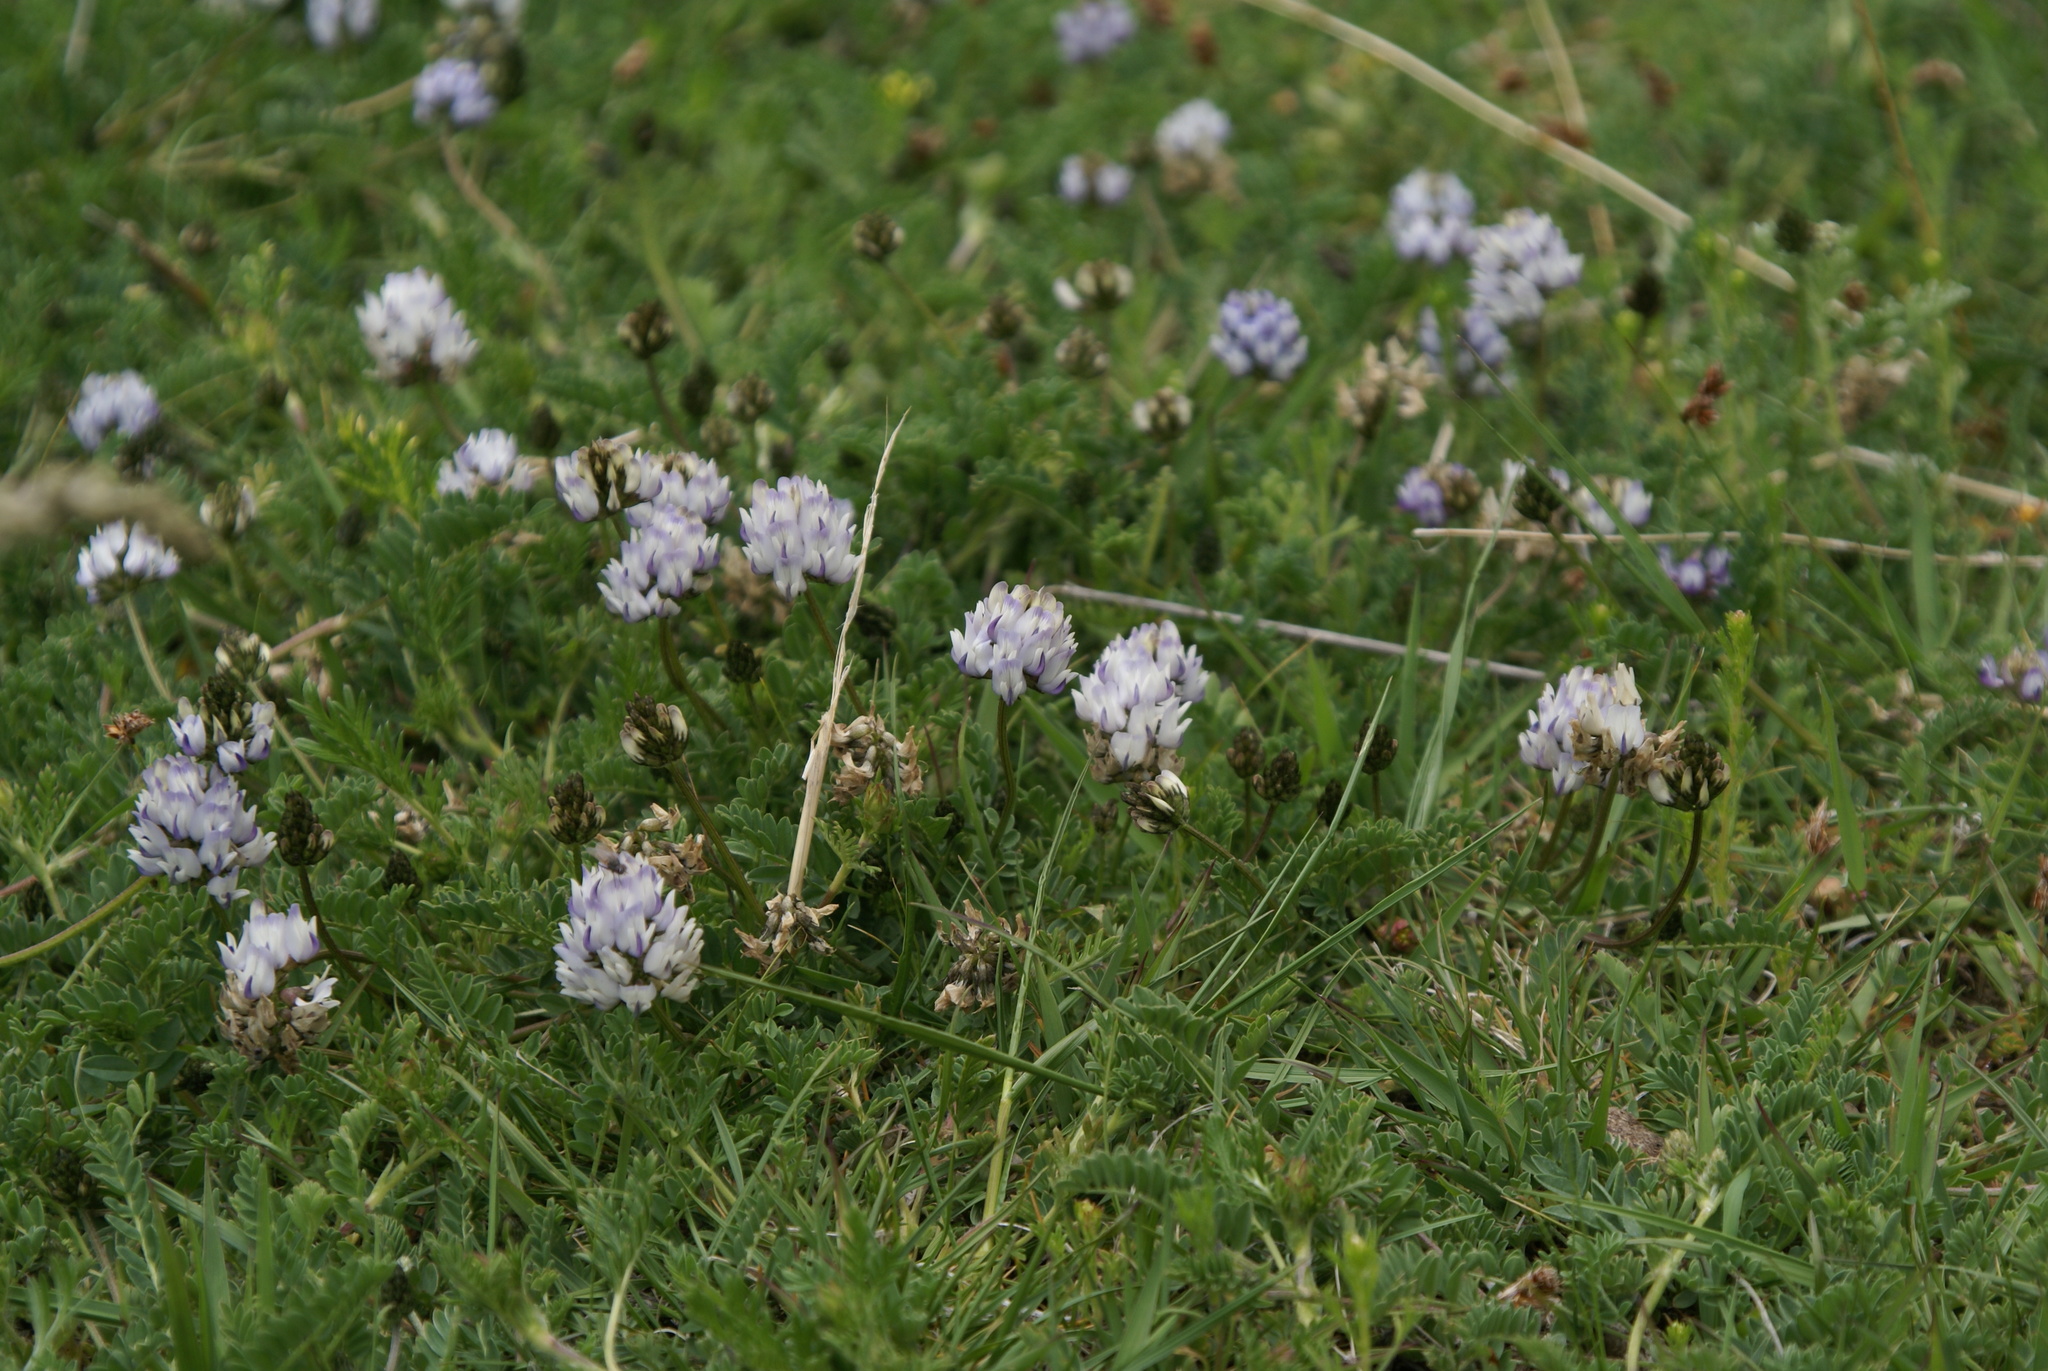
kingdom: Plantae
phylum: Tracheophyta
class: Magnoliopsida
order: Fabales
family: Fabaceae
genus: Astragalus
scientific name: Astragalus strictus
